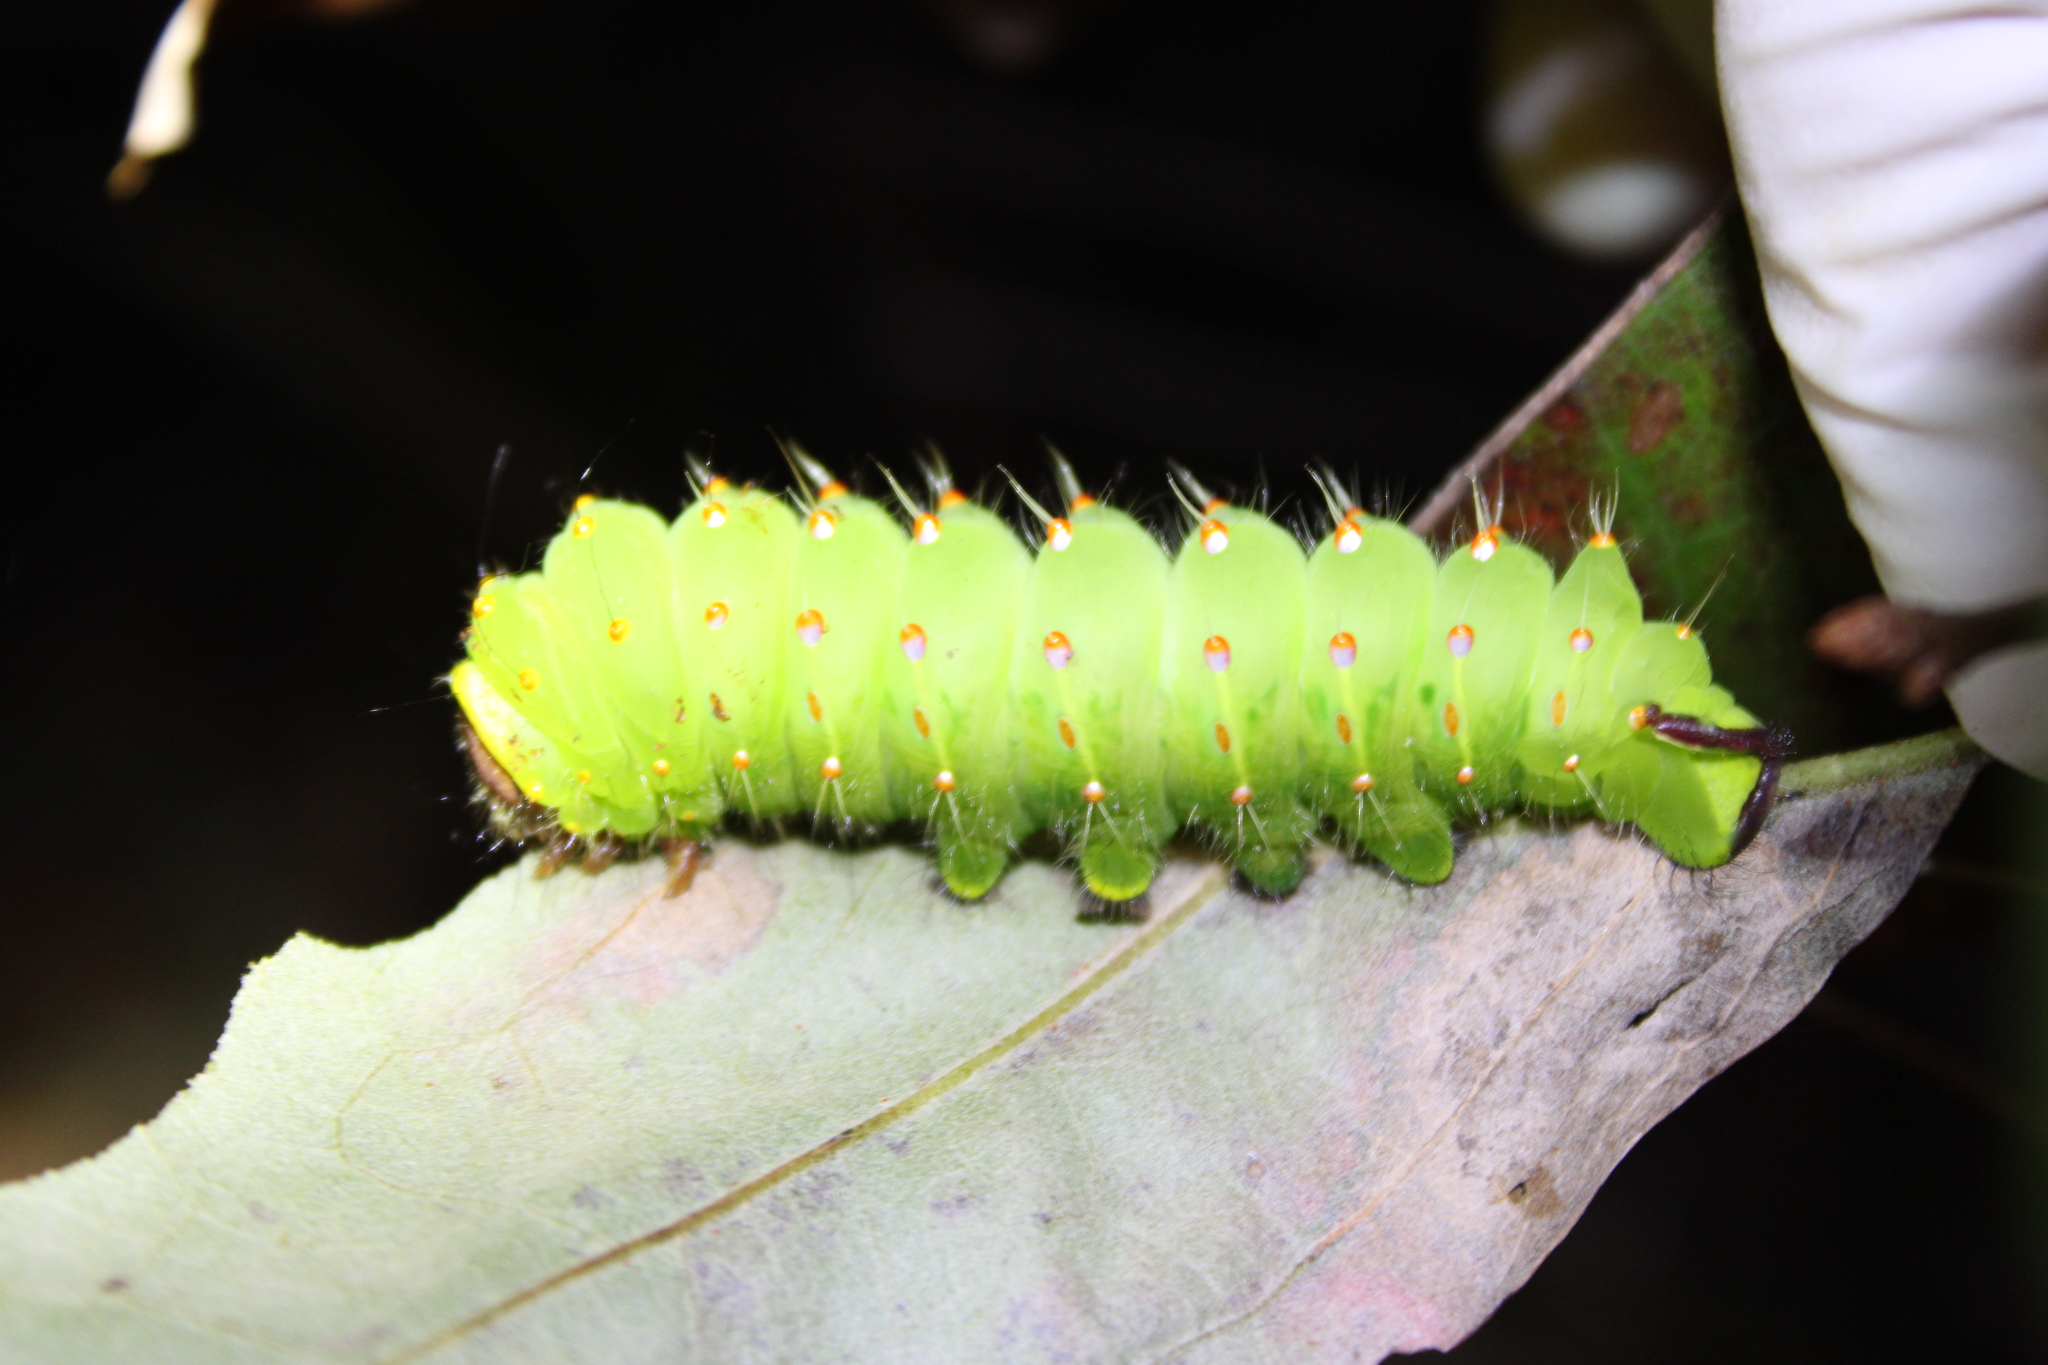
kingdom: Animalia
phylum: Arthropoda
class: Insecta
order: Lepidoptera
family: Saturniidae
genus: Antheraea
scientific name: Antheraea polyphemus
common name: Polyphemus moth
